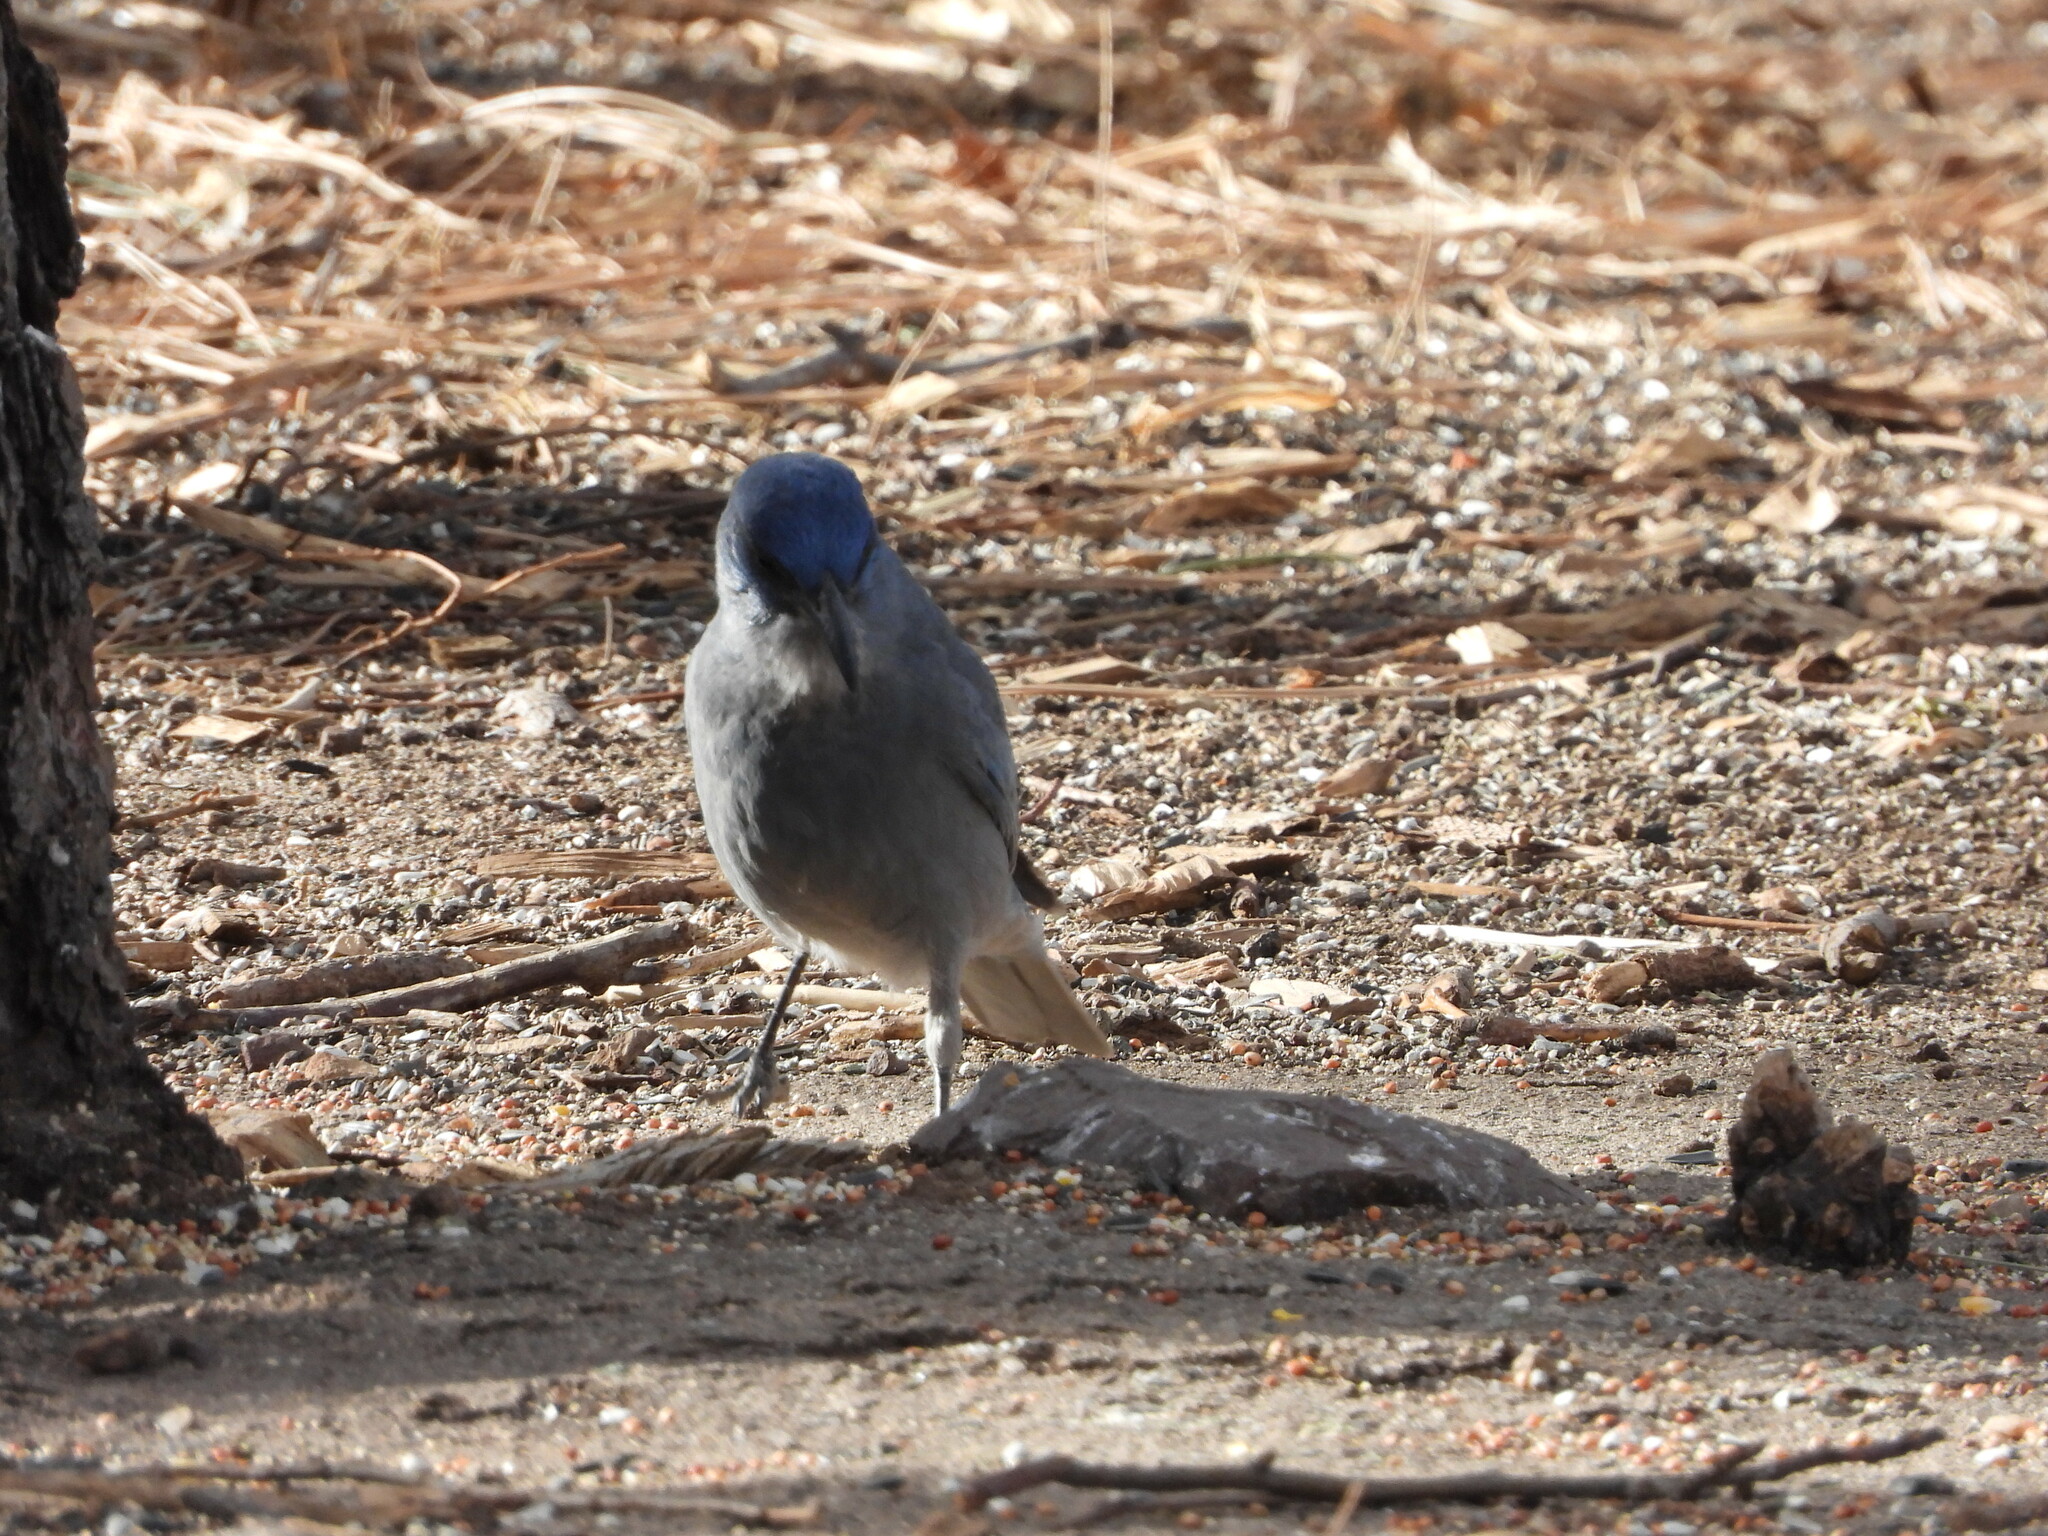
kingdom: Animalia
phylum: Chordata
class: Aves
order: Passeriformes
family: Corvidae
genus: Gymnorhinus
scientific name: Gymnorhinus cyanocephalus
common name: Pinyon jay
